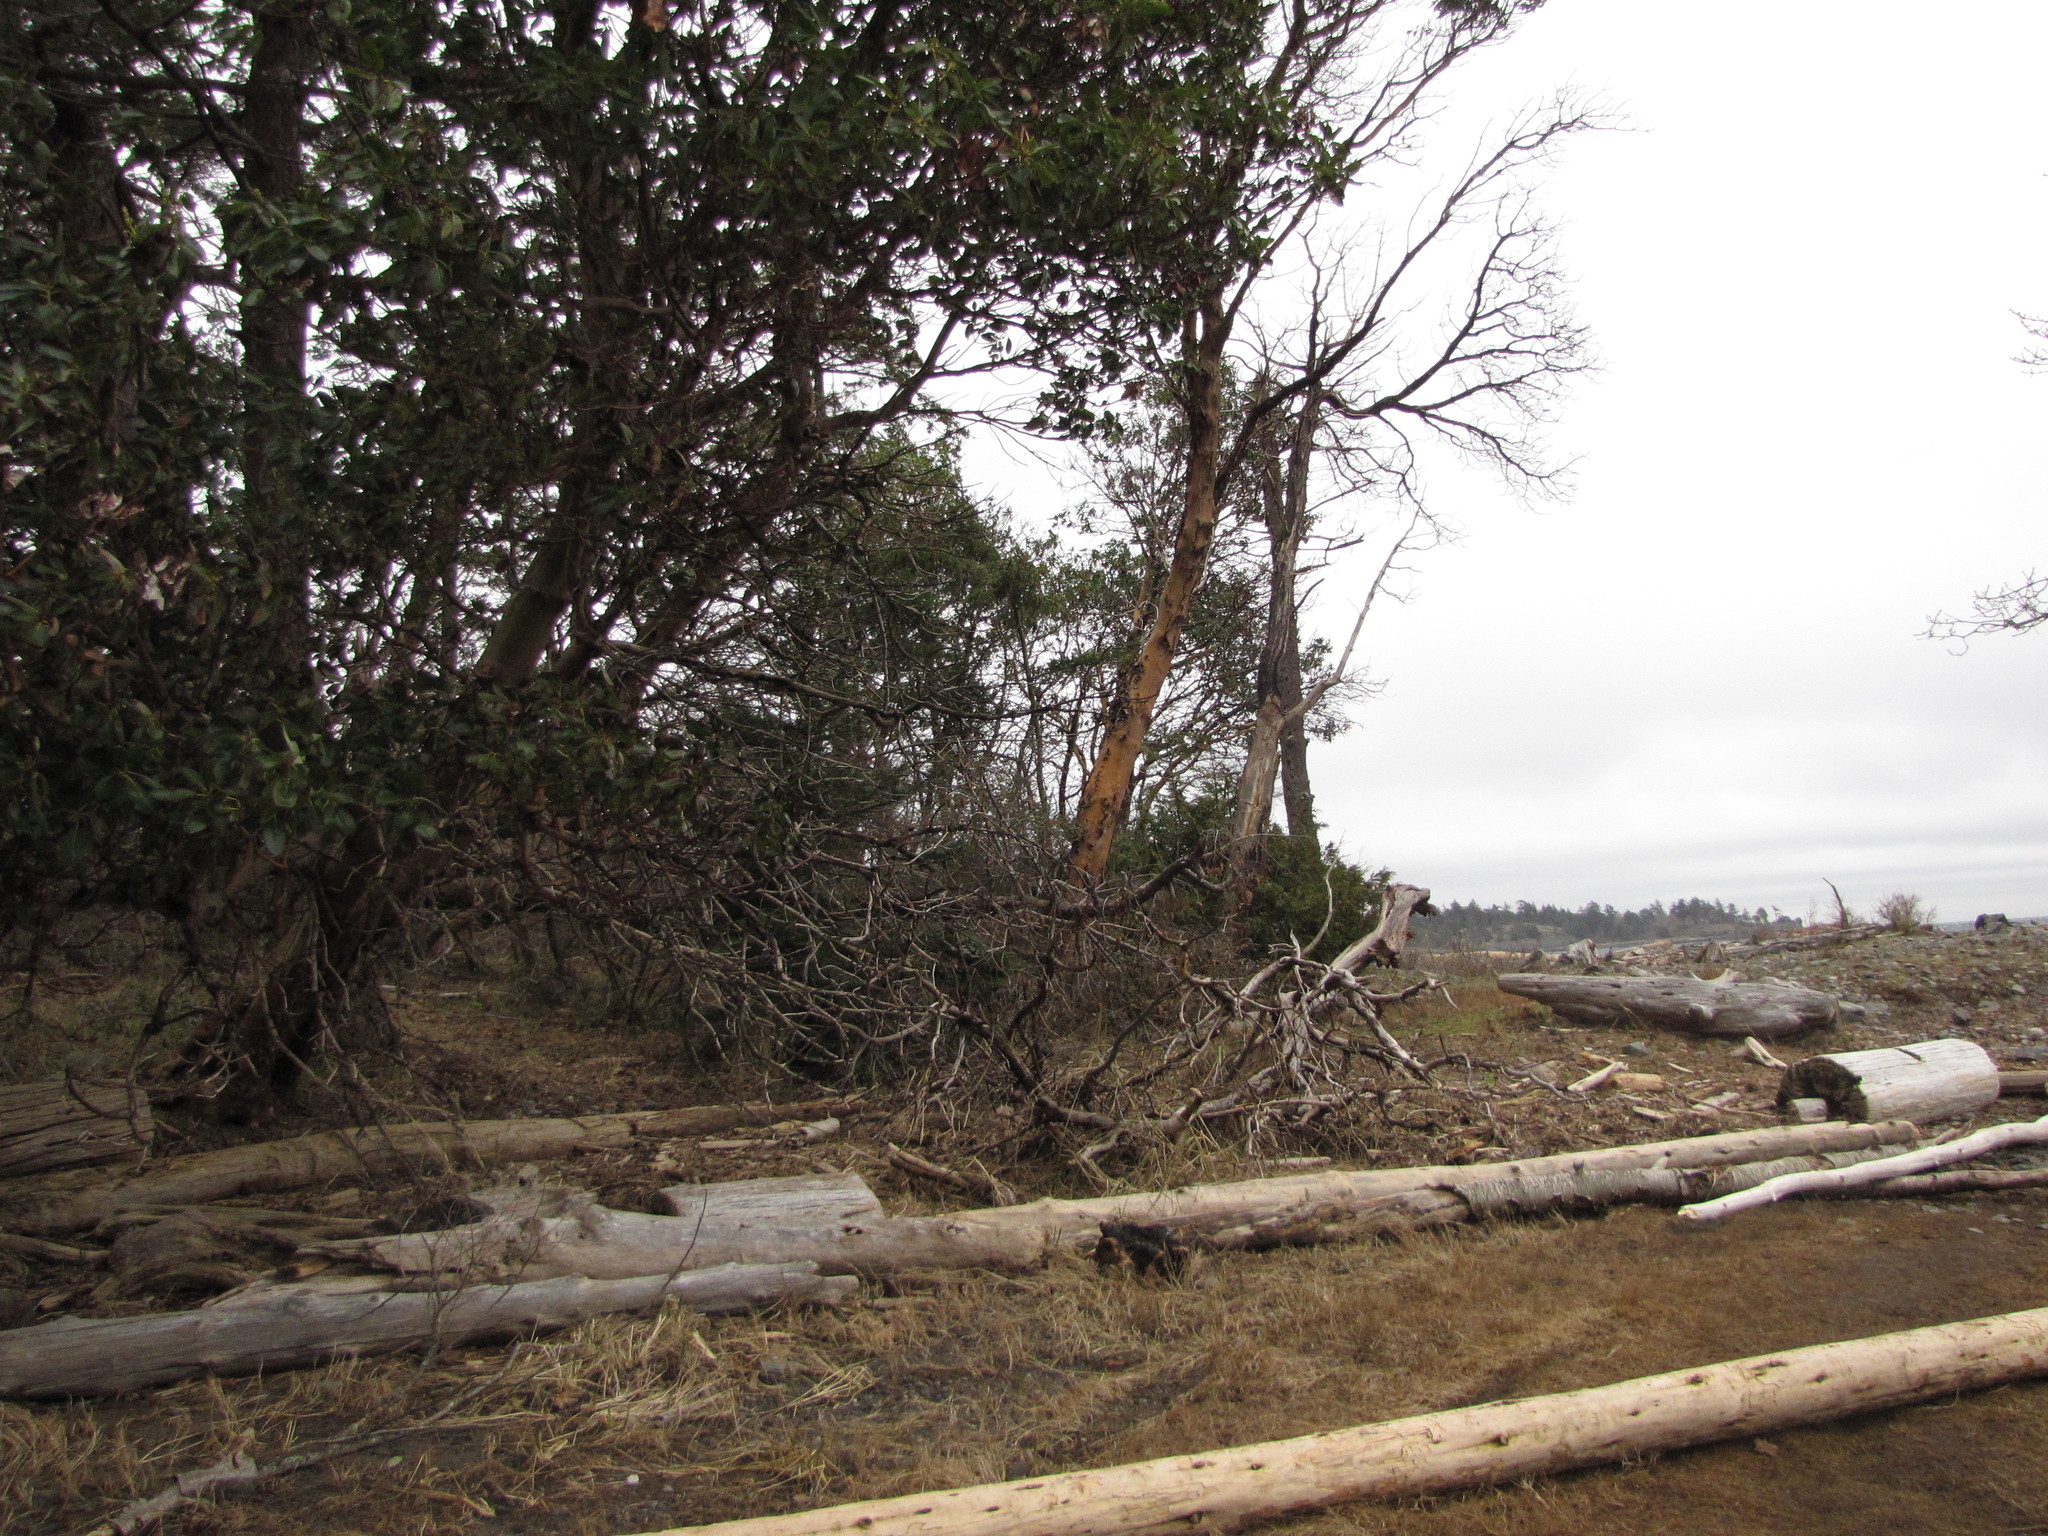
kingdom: Plantae
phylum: Tracheophyta
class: Magnoliopsida
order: Ericales
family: Ericaceae
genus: Arbutus
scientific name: Arbutus menziesii
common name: Pacific madrone
